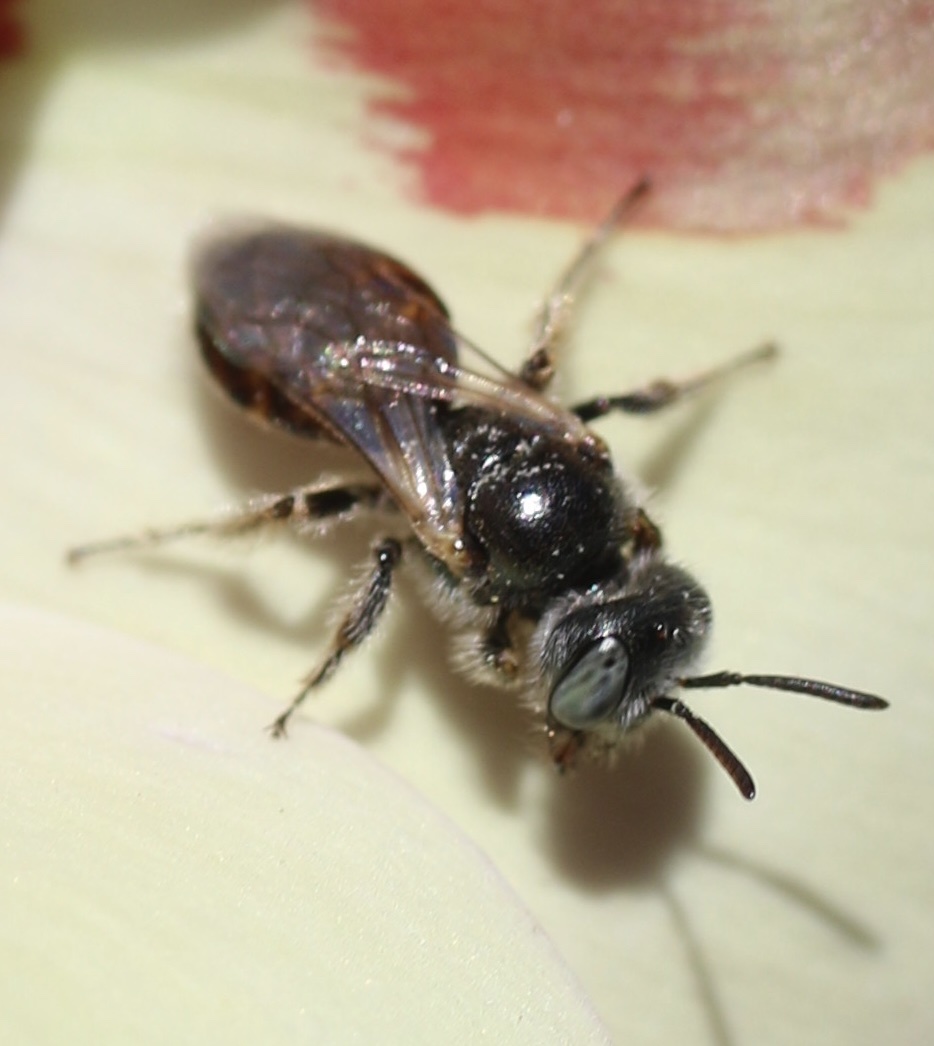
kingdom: Animalia
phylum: Arthropoda
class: Insecta
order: Hymenoptera
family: Andrenidae
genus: Perdita
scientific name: Perdita californica
